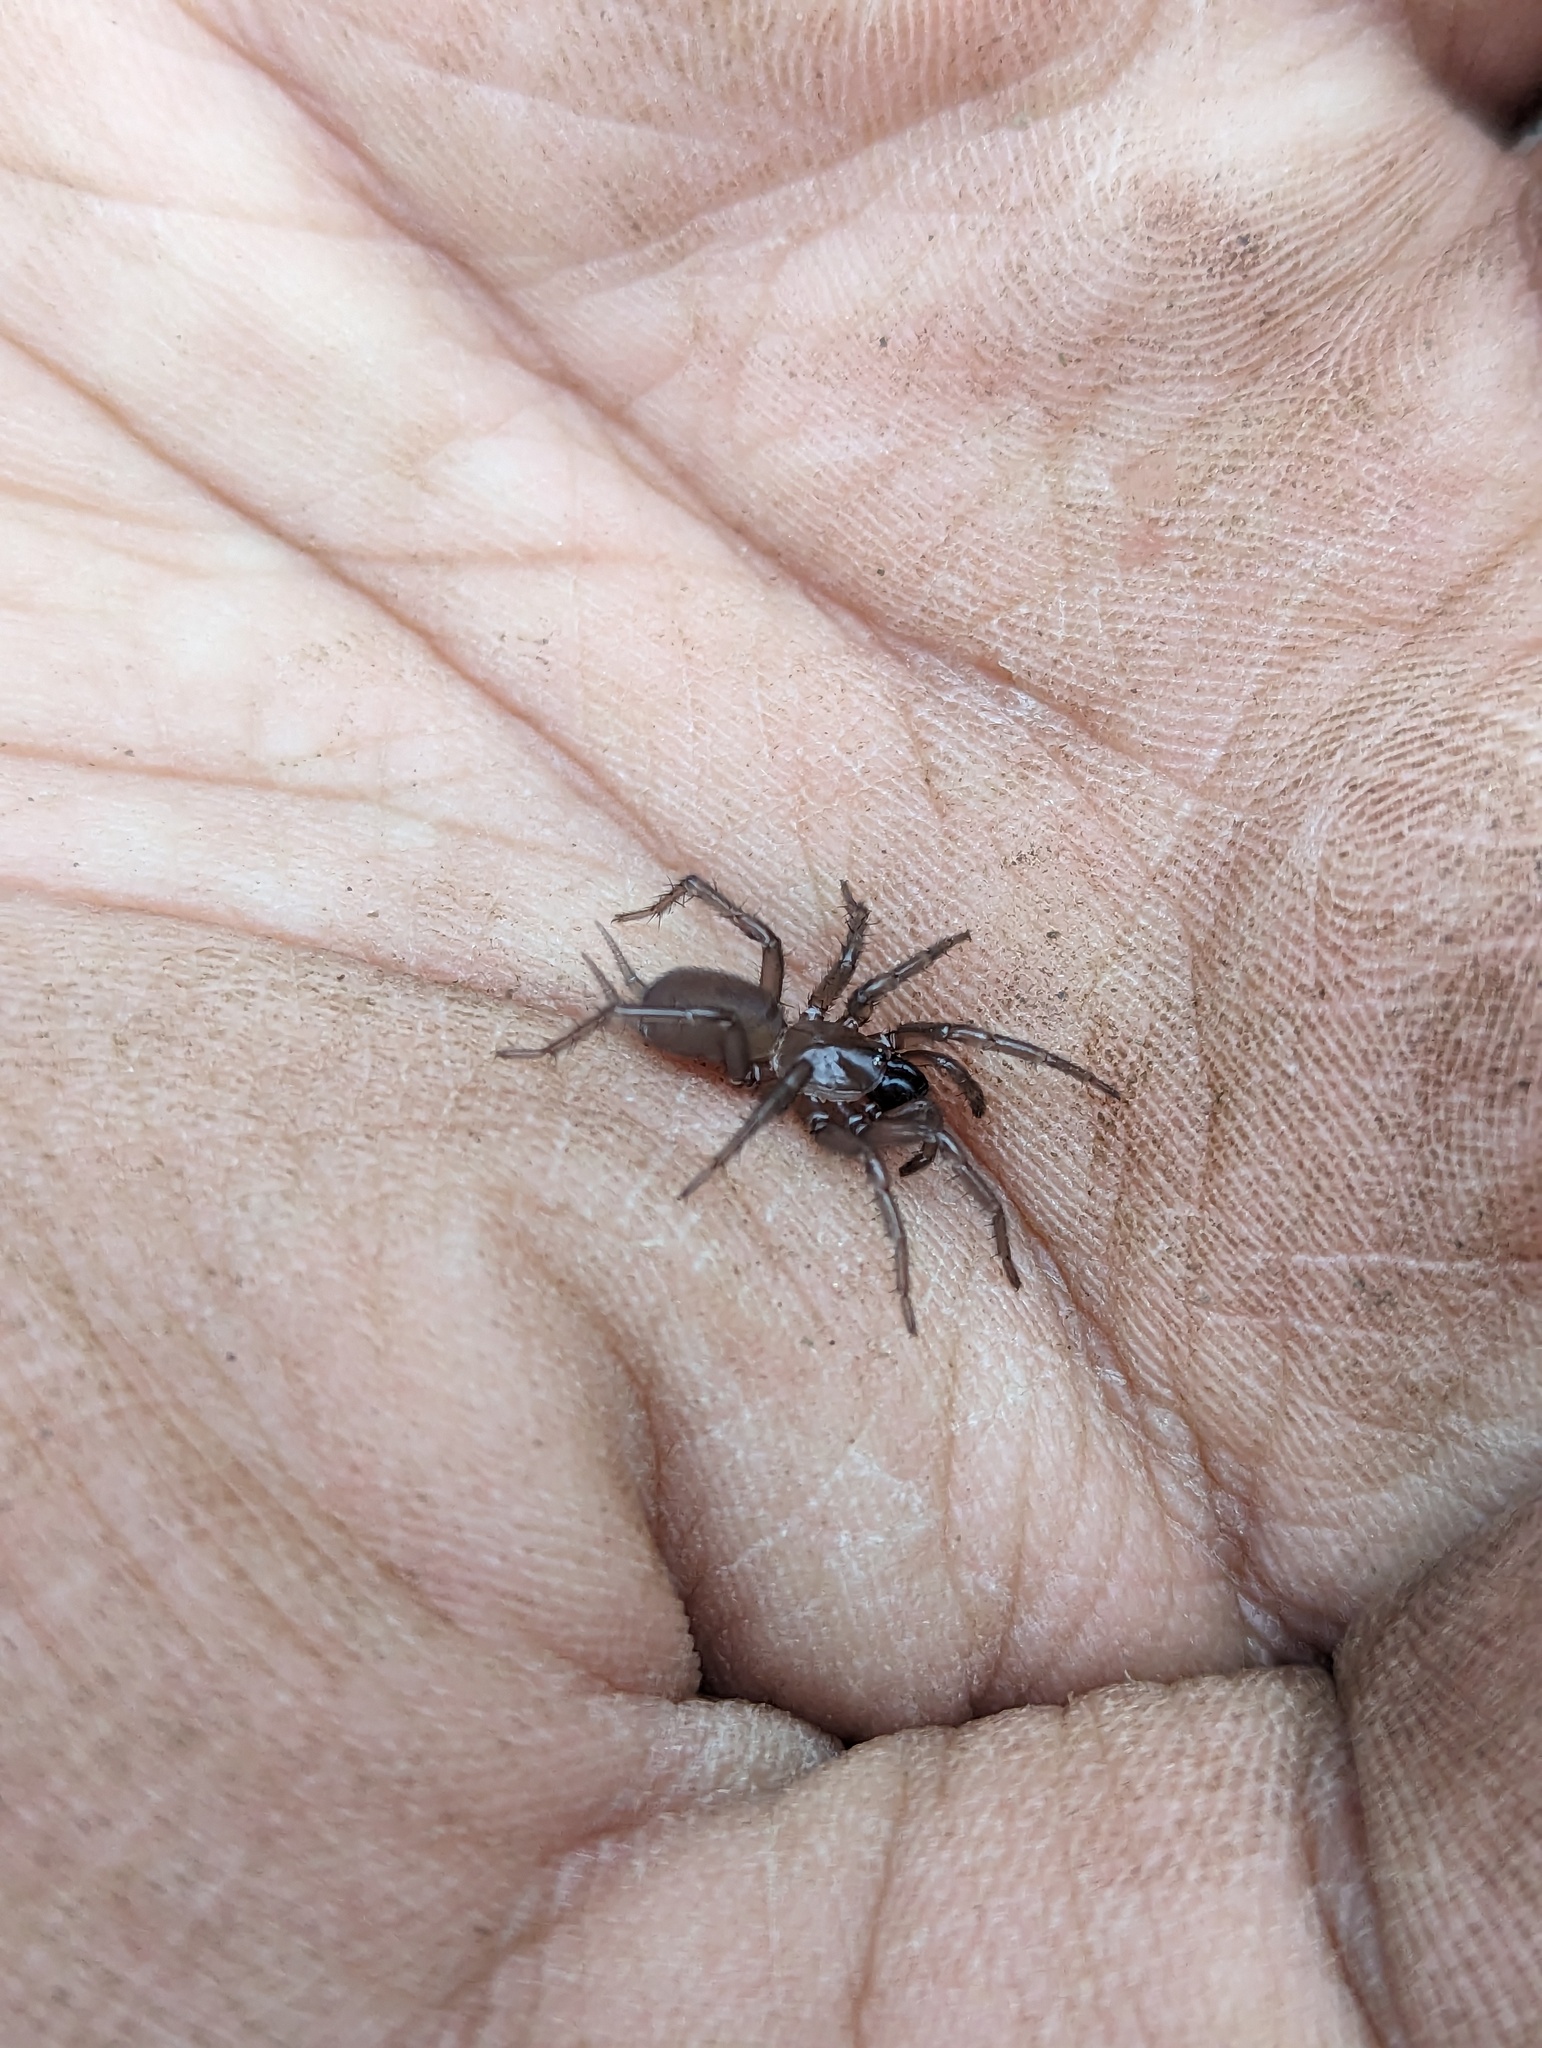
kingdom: Animalia
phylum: Arthropoda
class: Arachnida
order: Araneae
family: Megahexuridae
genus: Megahexura
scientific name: Megahexura fulva
